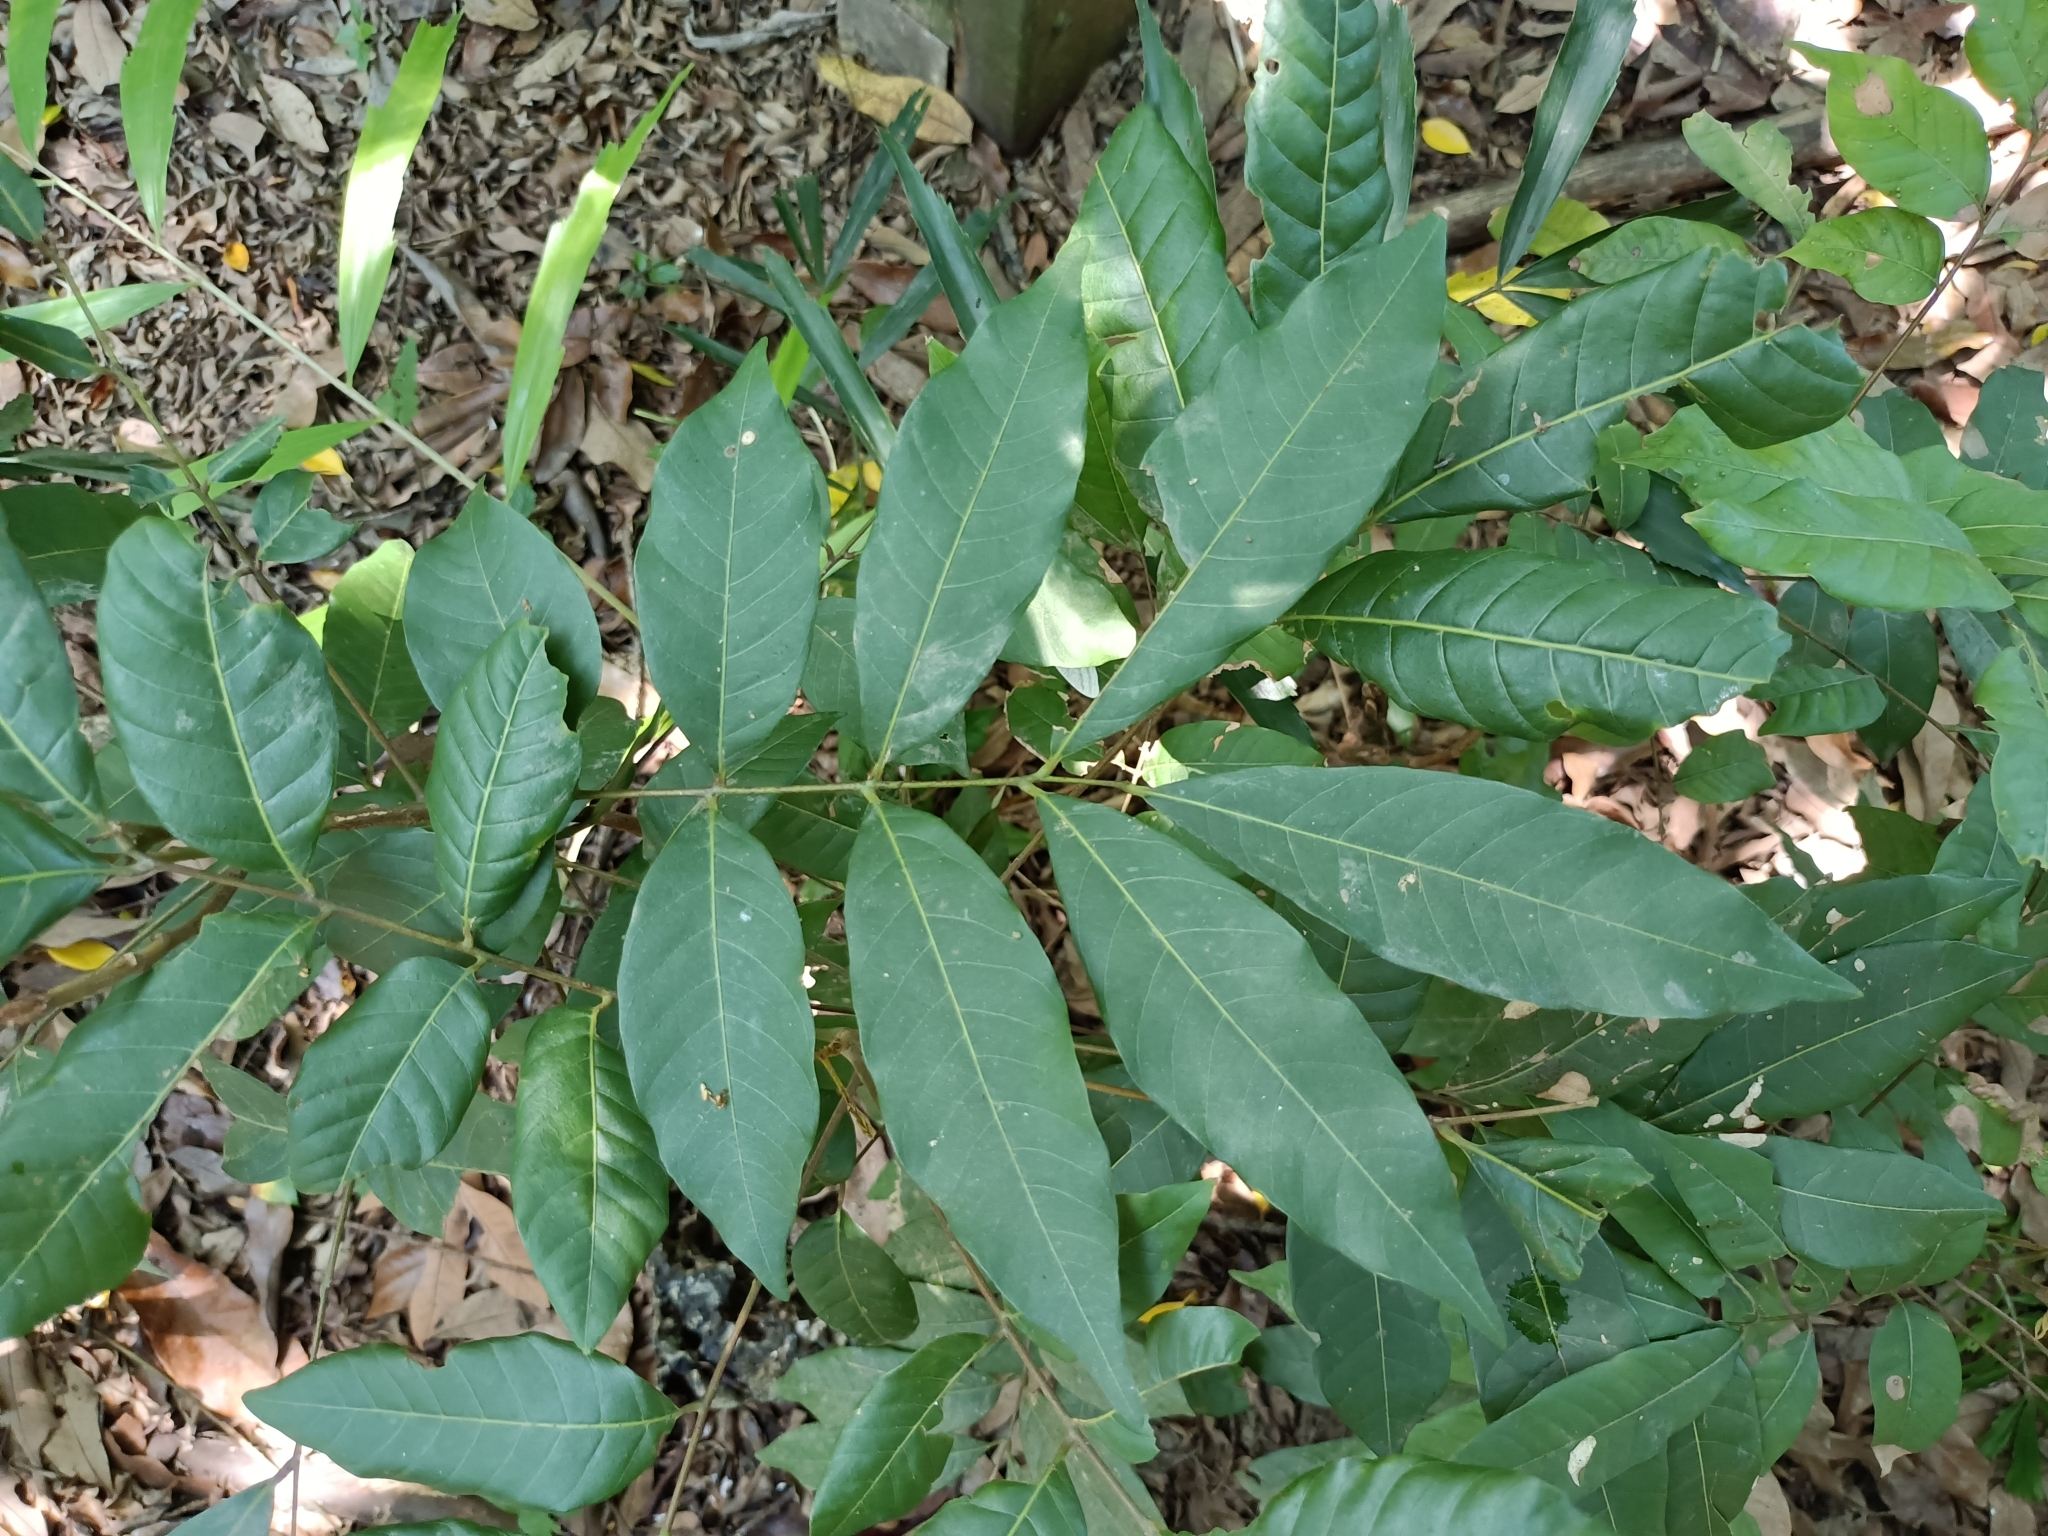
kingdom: Plantae
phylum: Tracheophyta
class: Magnoliopsida
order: Sapindales
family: Sapindaceae
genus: Dimocarpus
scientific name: Dimocarpus longan
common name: Longan
